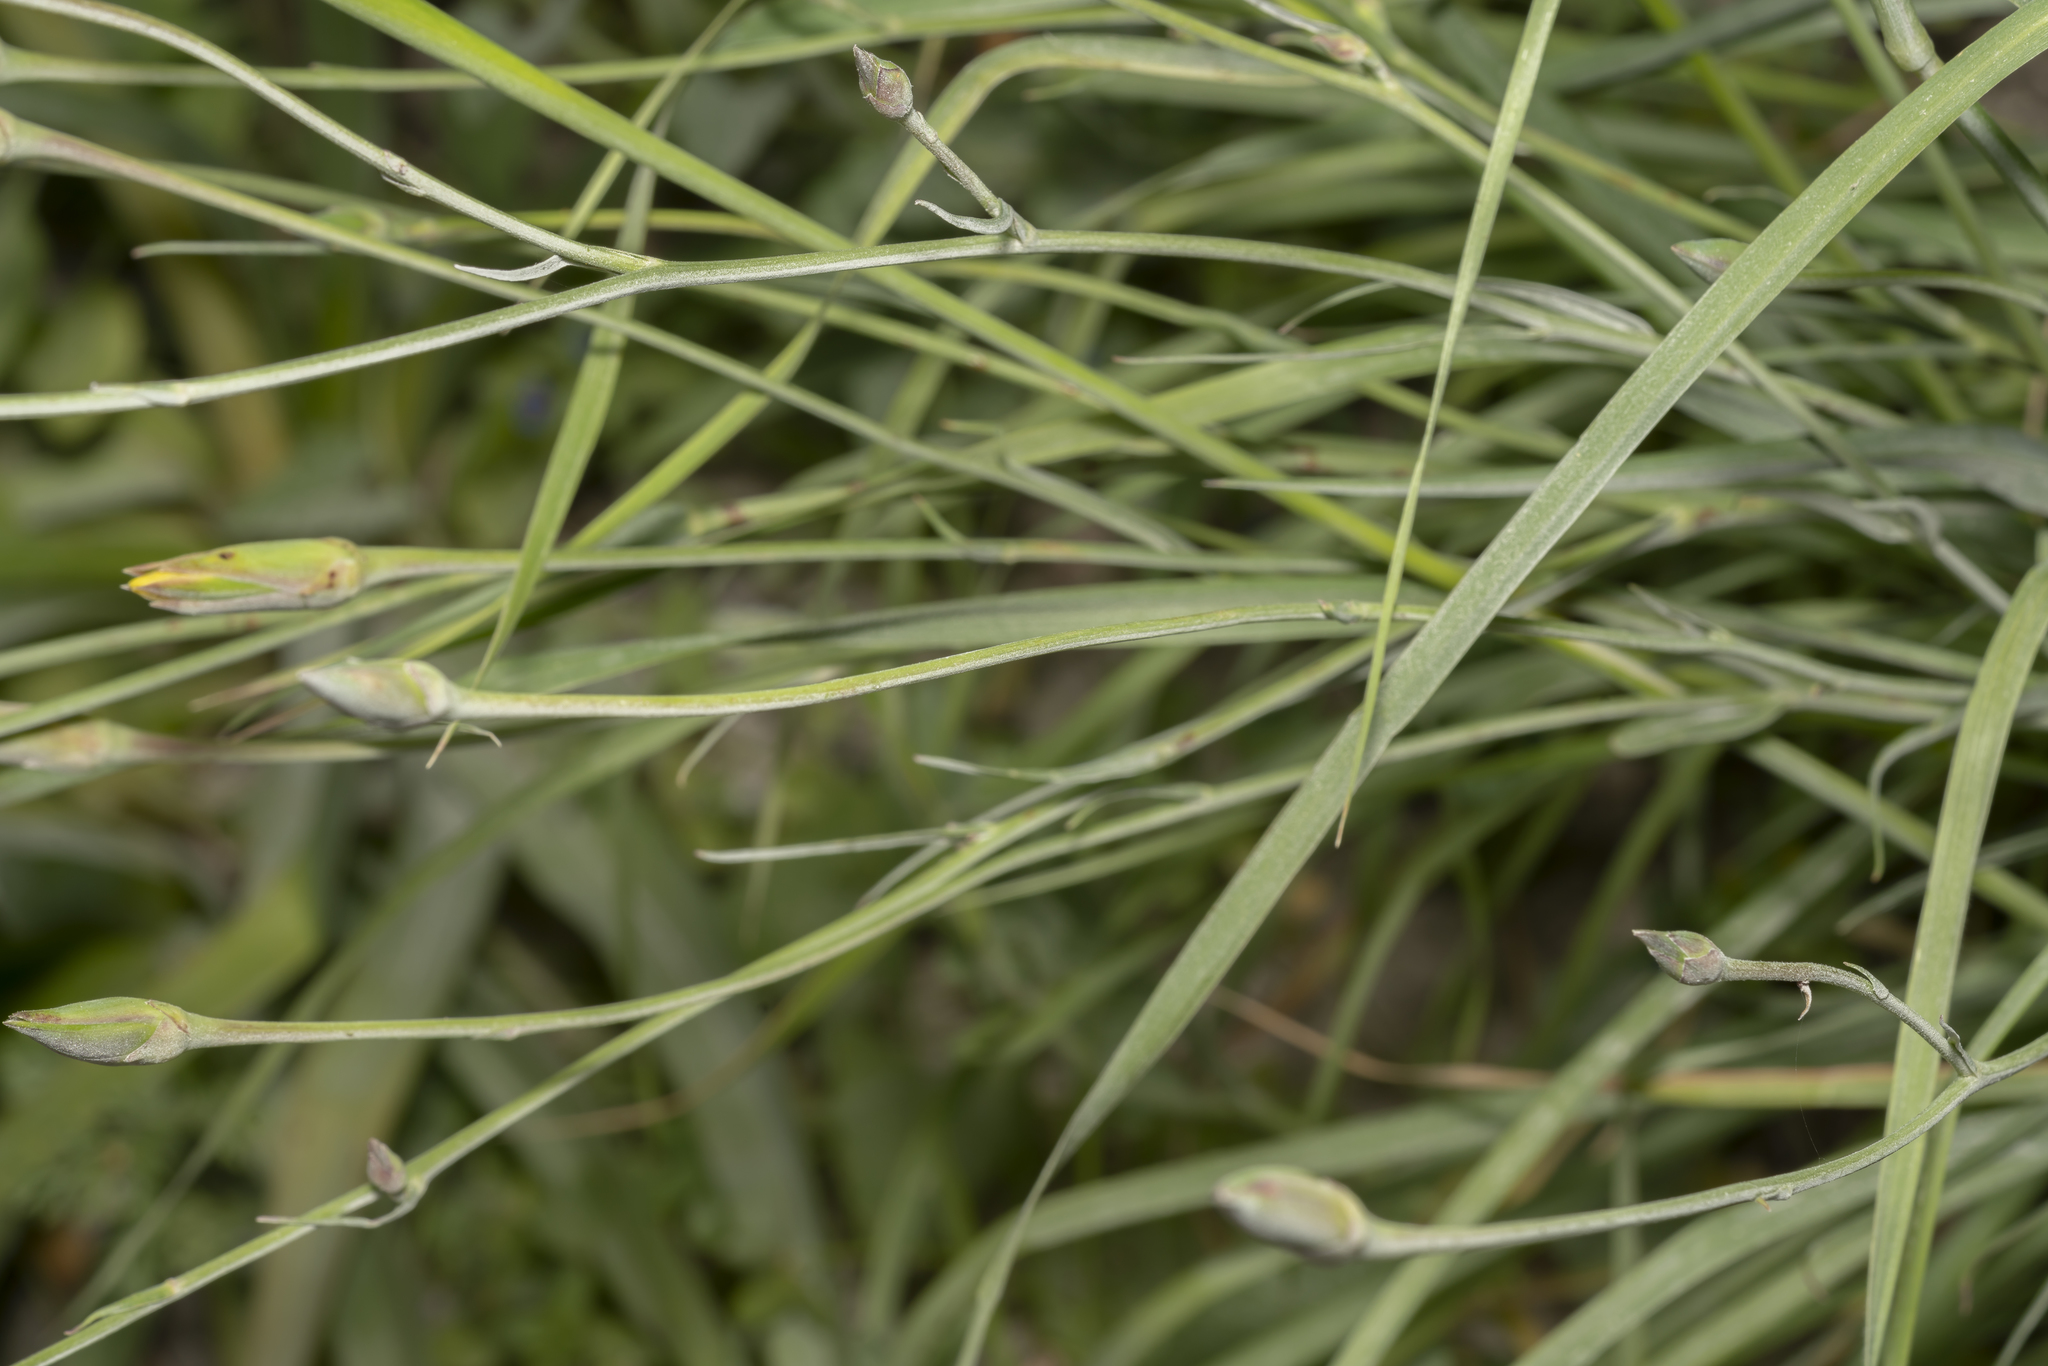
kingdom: Plantae
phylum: Tracheophyta
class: Magnoliopsida
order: Asterales
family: Asteraceae
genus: Candollea
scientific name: Candollea elata
